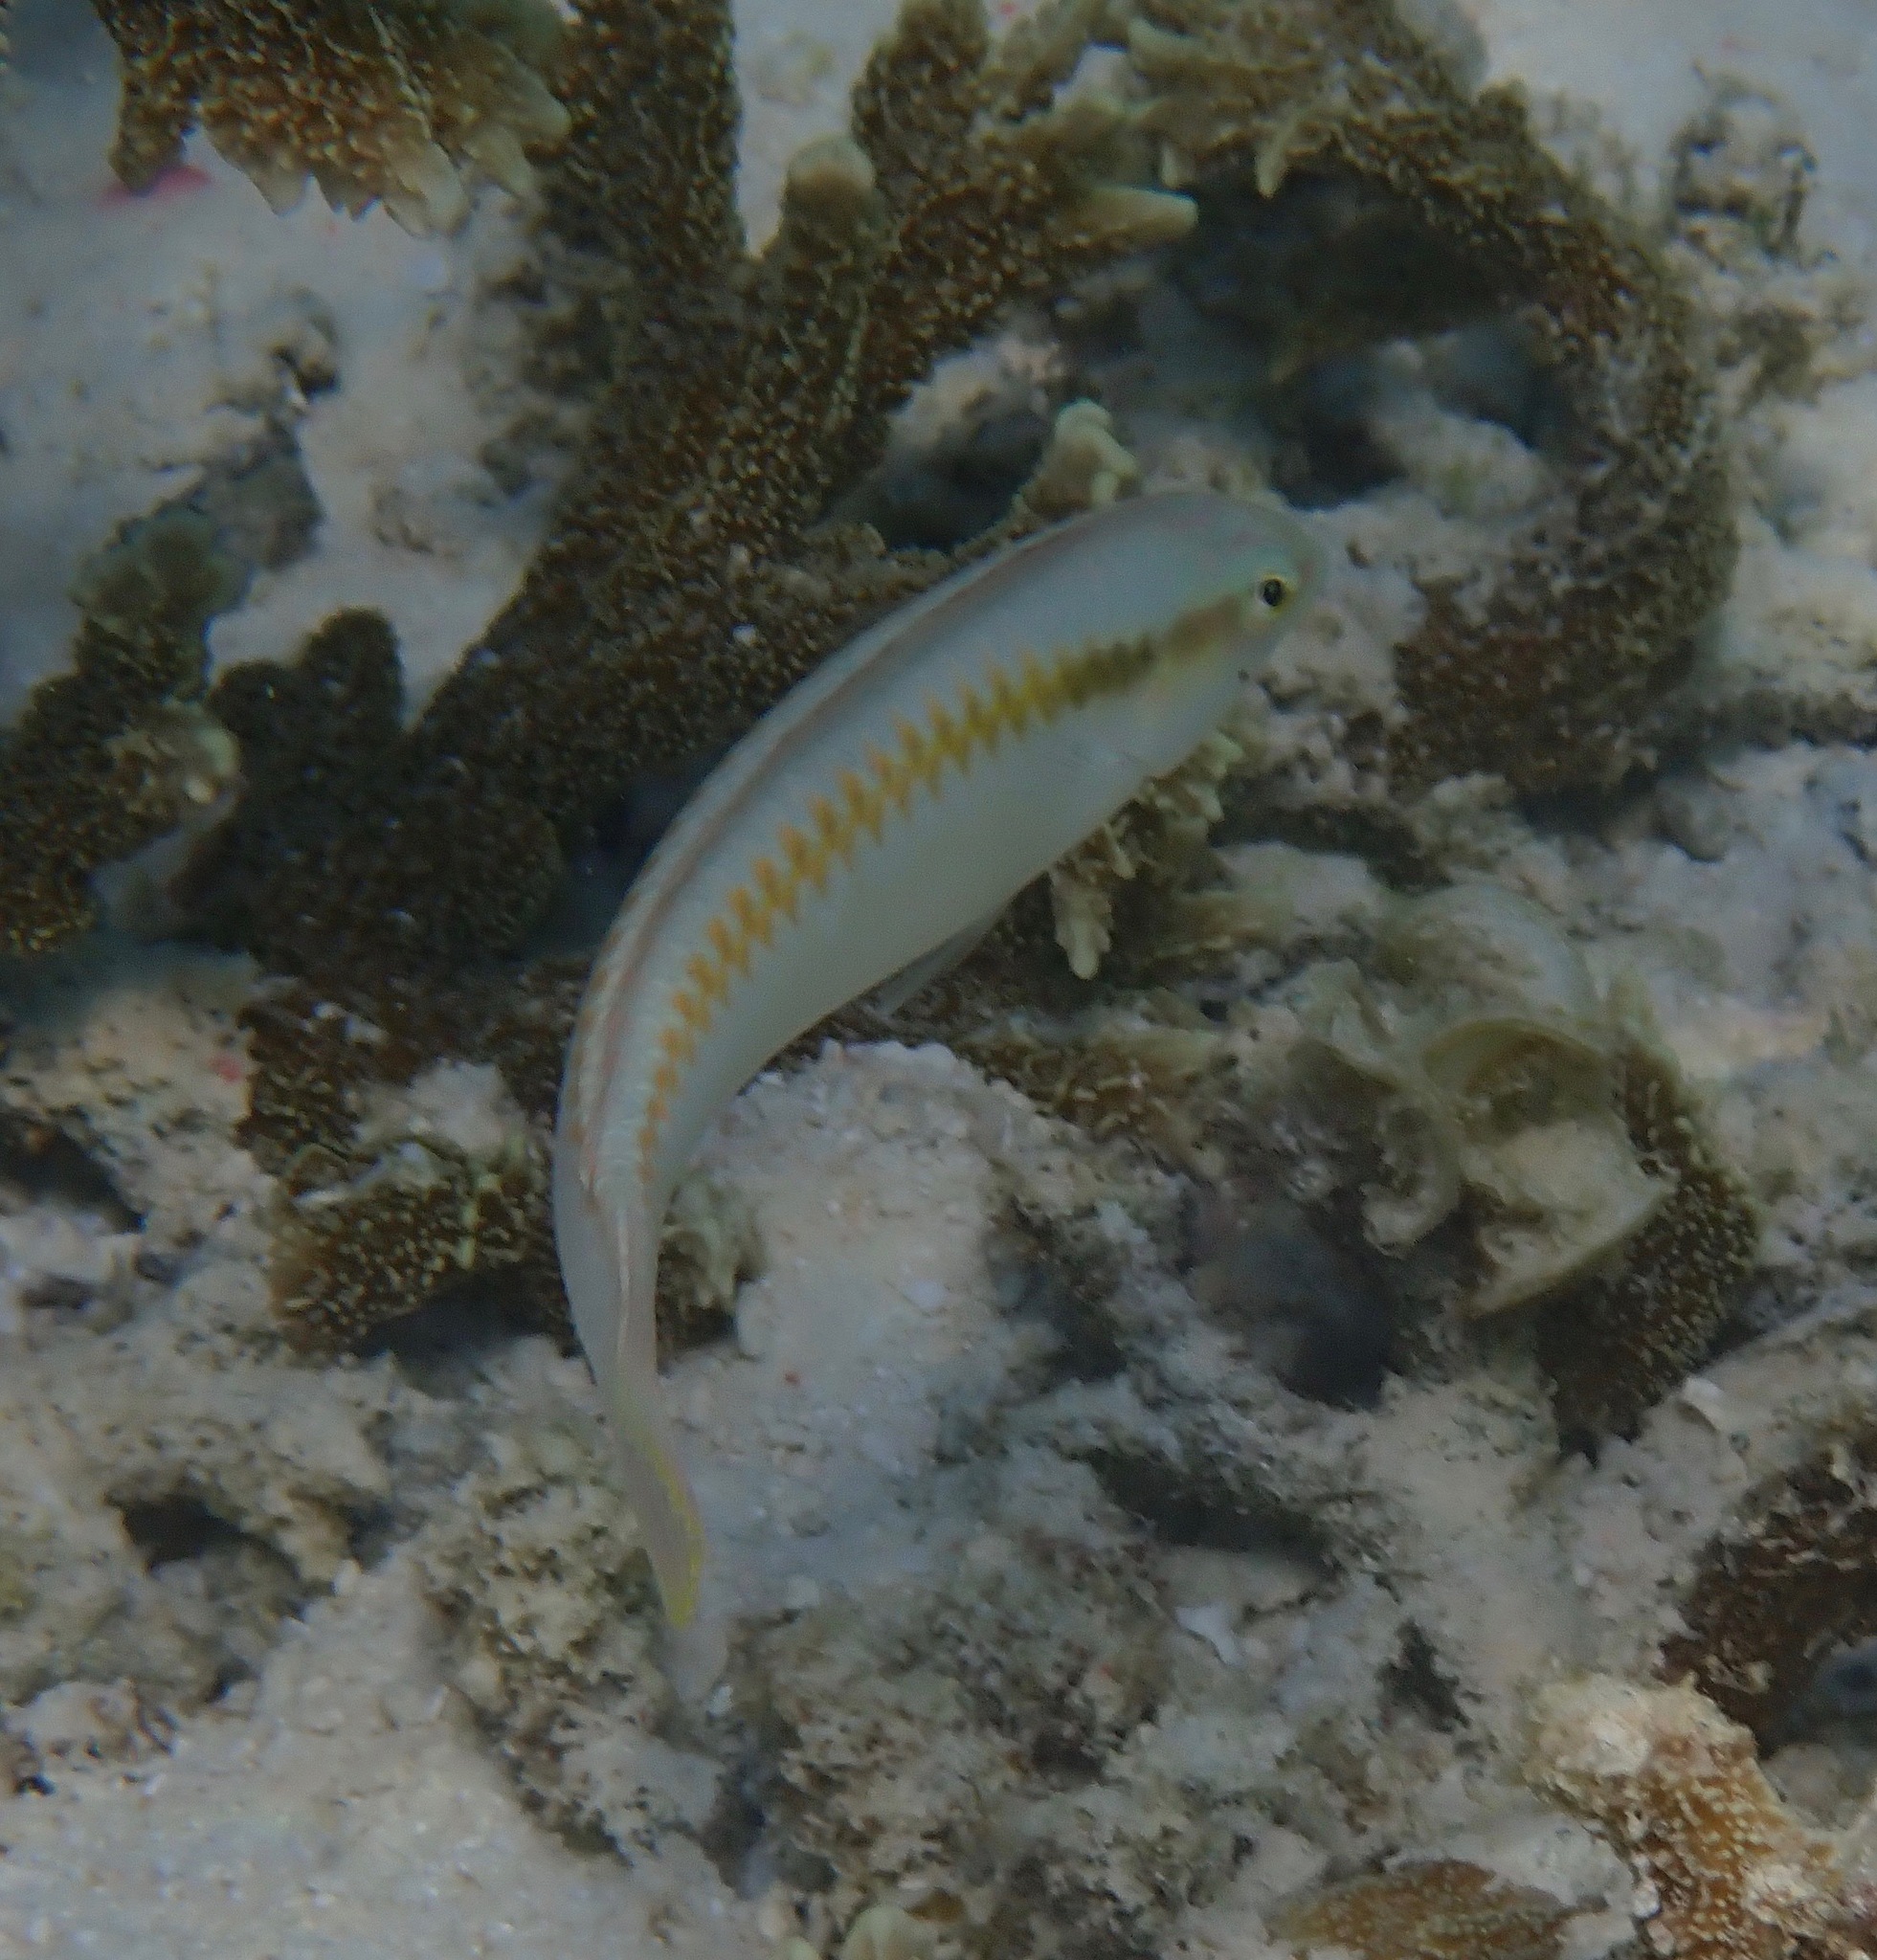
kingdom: Animalia
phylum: Chordata
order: Perciformes
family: Labridae
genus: Halichoeres
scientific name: Halichoeres scapularis
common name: Brownbanded wrasse
